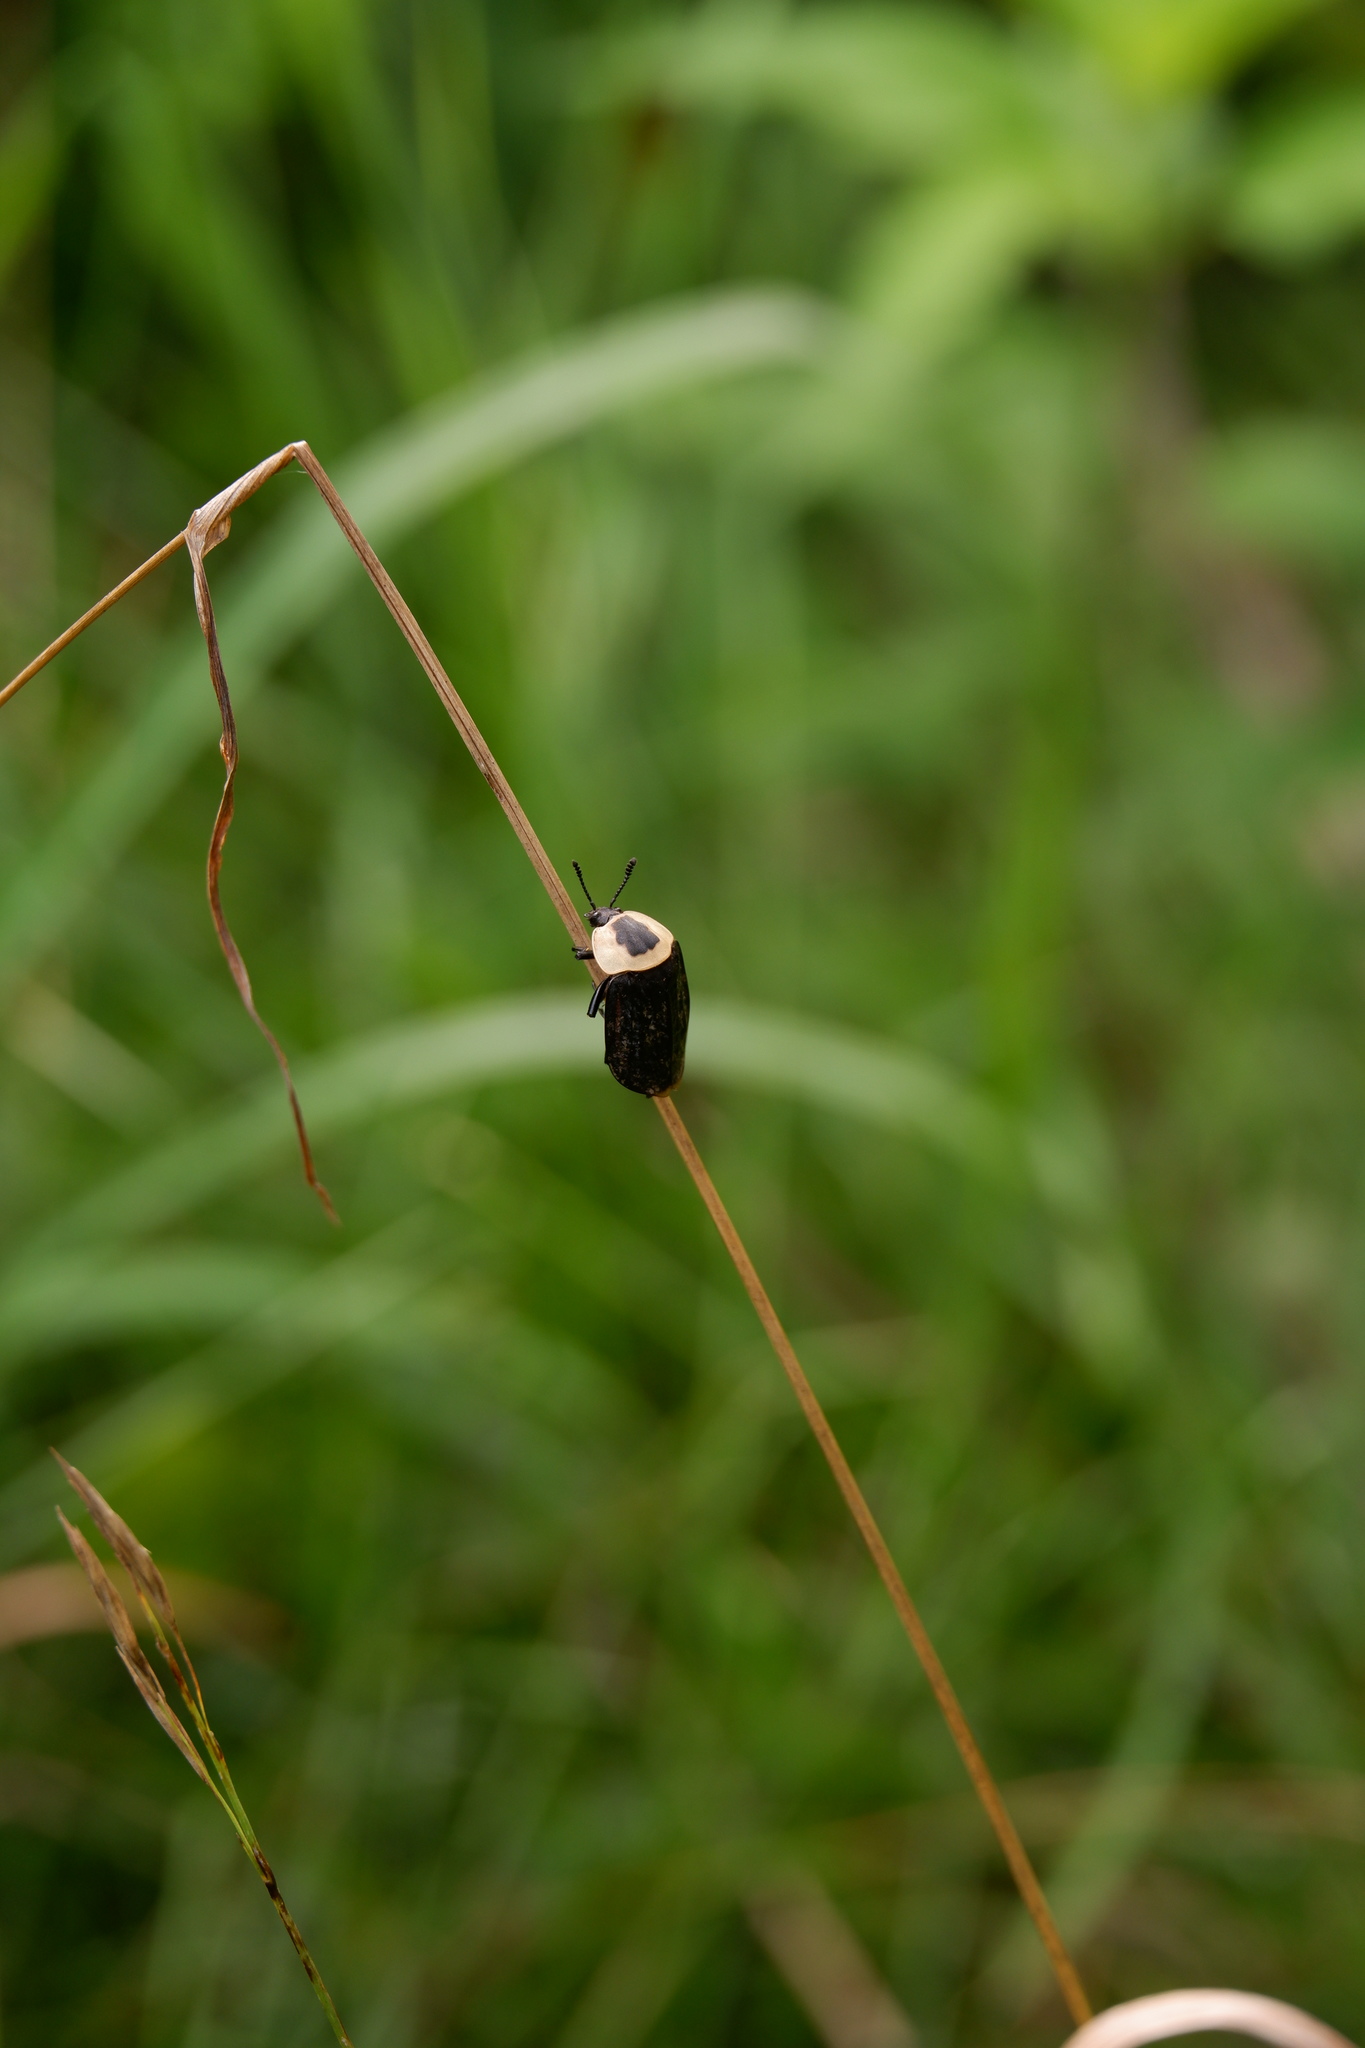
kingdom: Animalia
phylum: Arthropoda
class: Insecta
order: Coleoptera
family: Staphylinidae
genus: Necrophila
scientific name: Necrophila americana
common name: American carrion beetle
